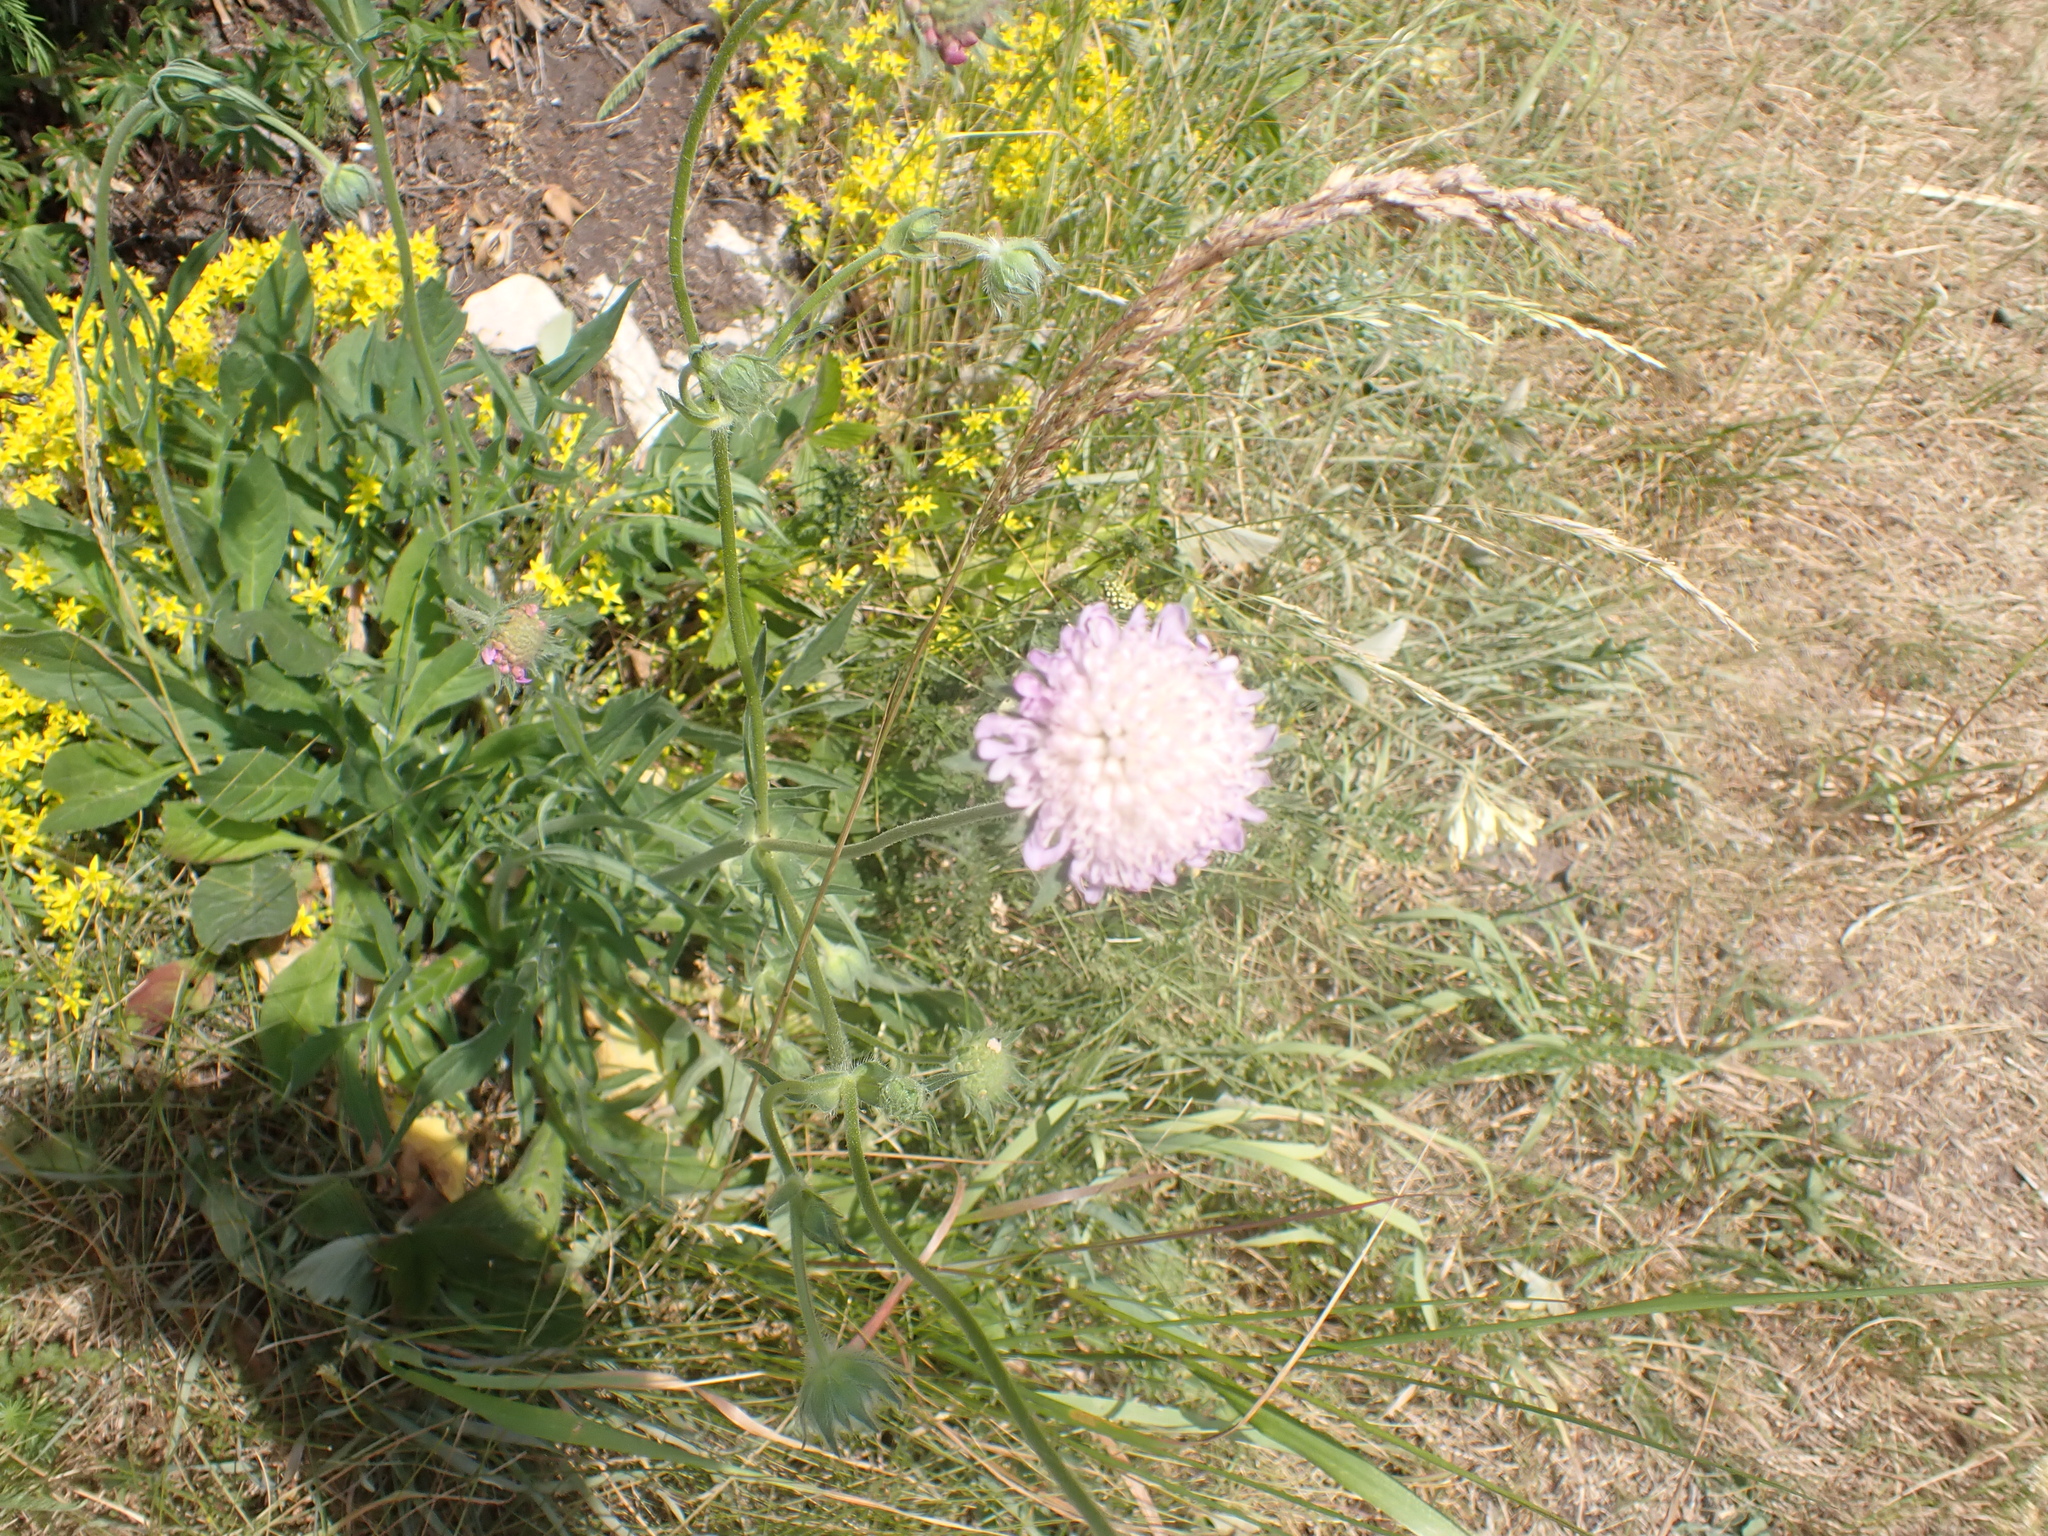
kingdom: Plantae
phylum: Tracheophyta
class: Magnoliopsida
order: Dipsacales
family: Caprifoliaceae
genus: Knautia
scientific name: Knautia arvensis
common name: Field scabiosa
